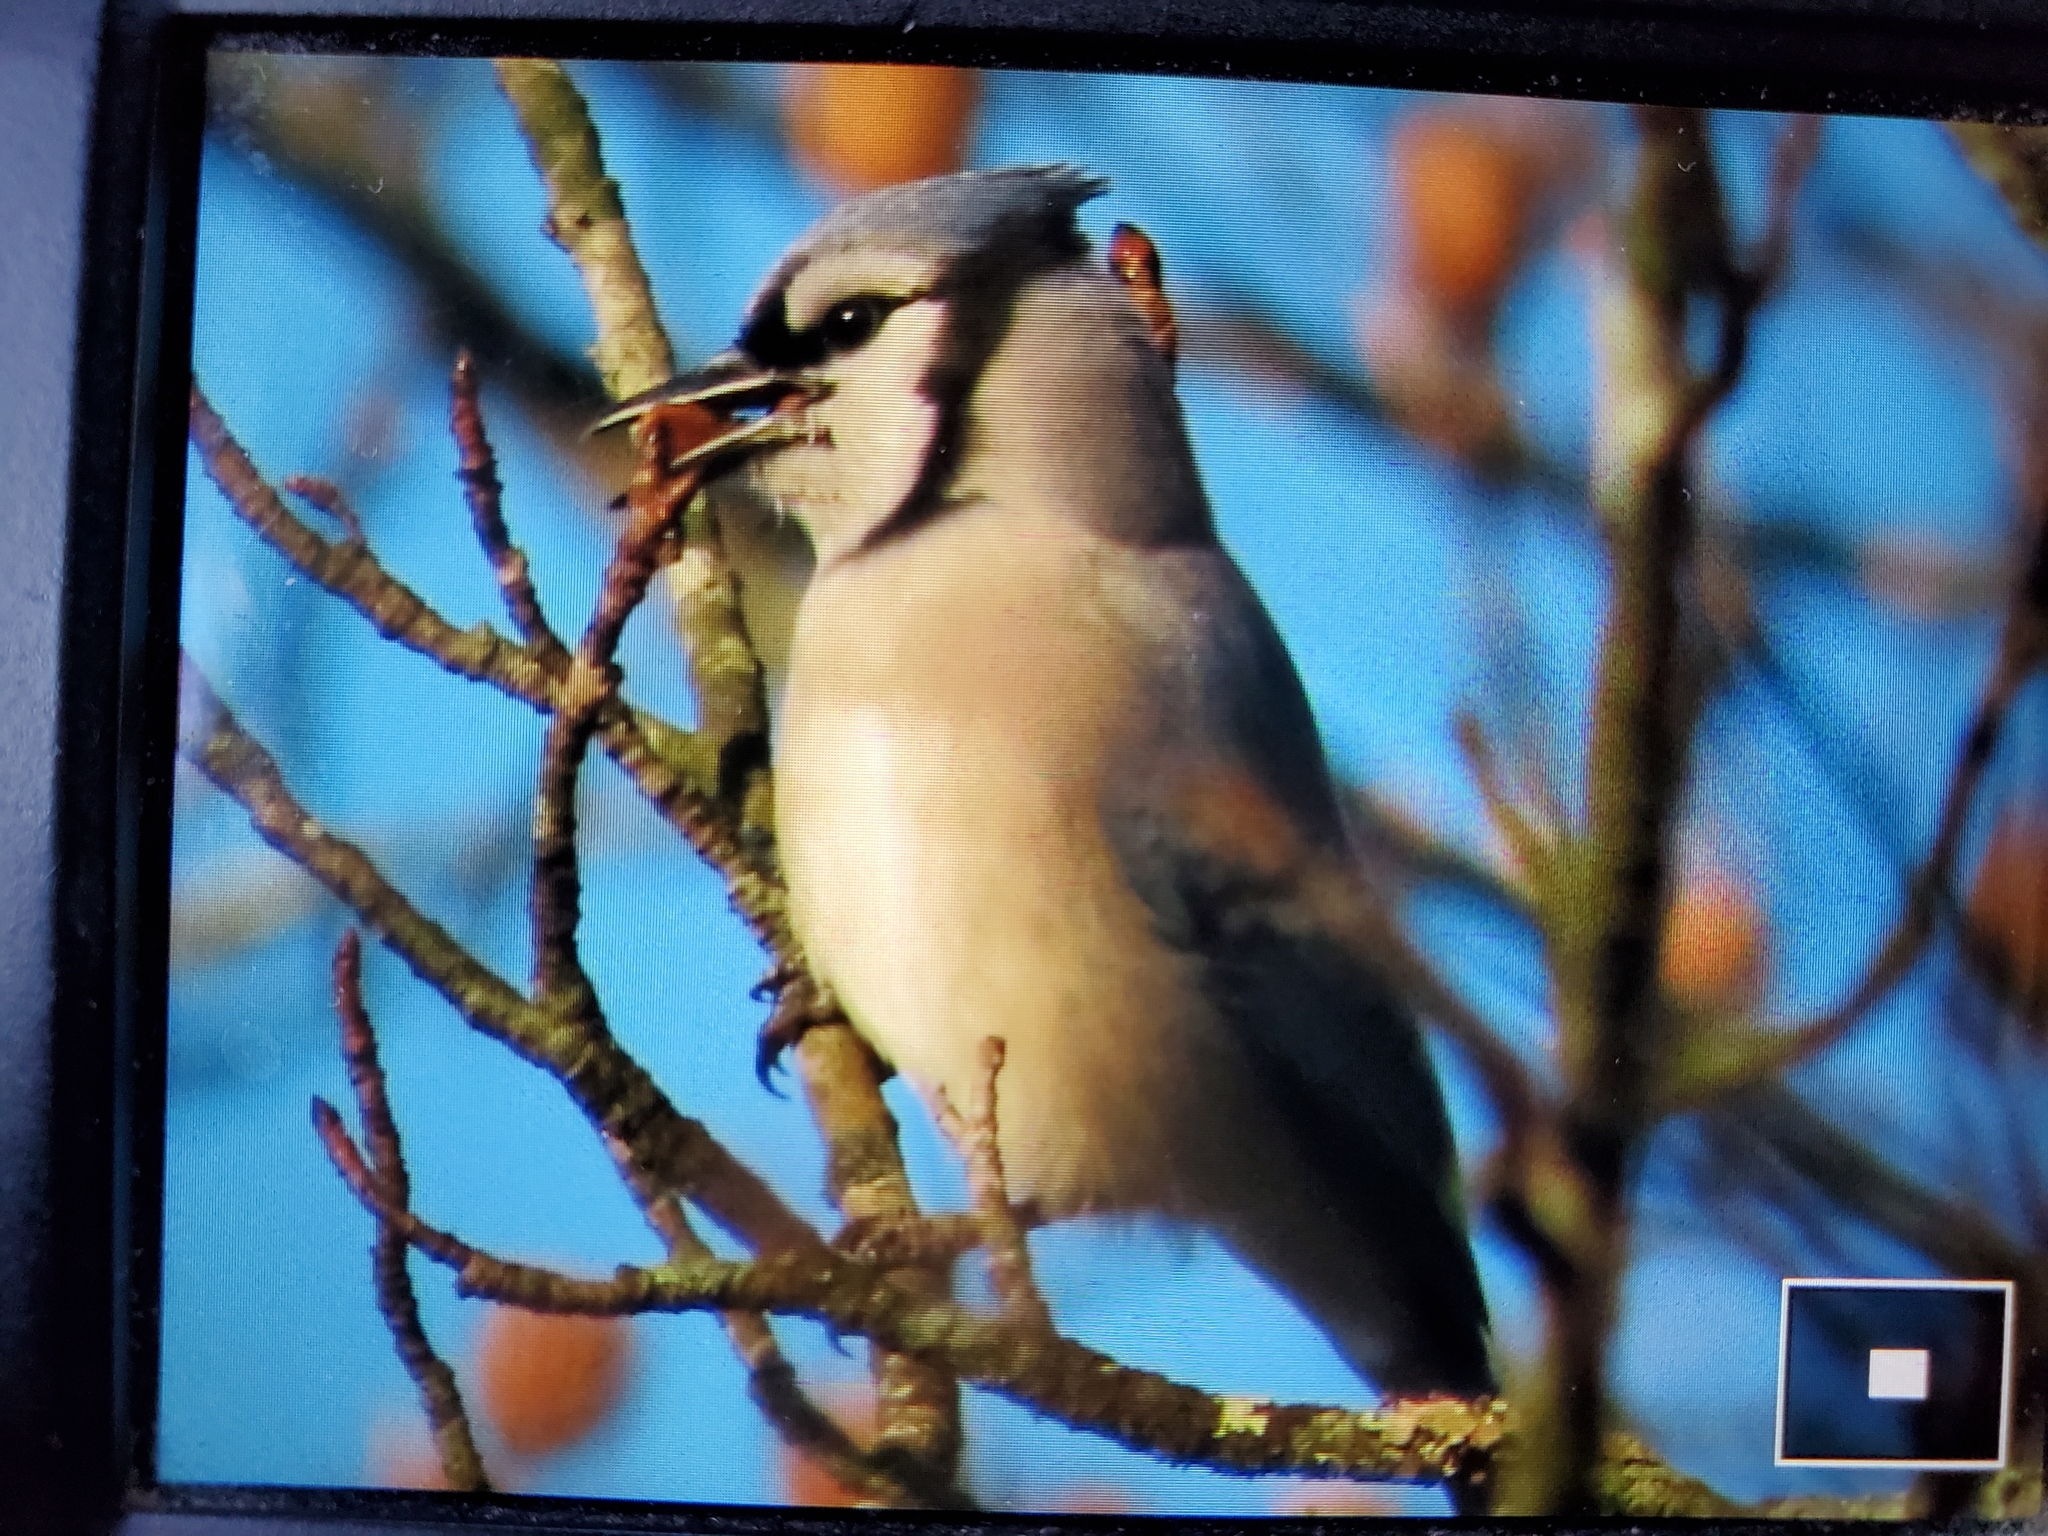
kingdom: Animalia
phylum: Chordata
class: Aves
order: Passeriformes
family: Corvidae
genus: Cyanocitta
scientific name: Cyanocitta cristata
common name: Blue jay
